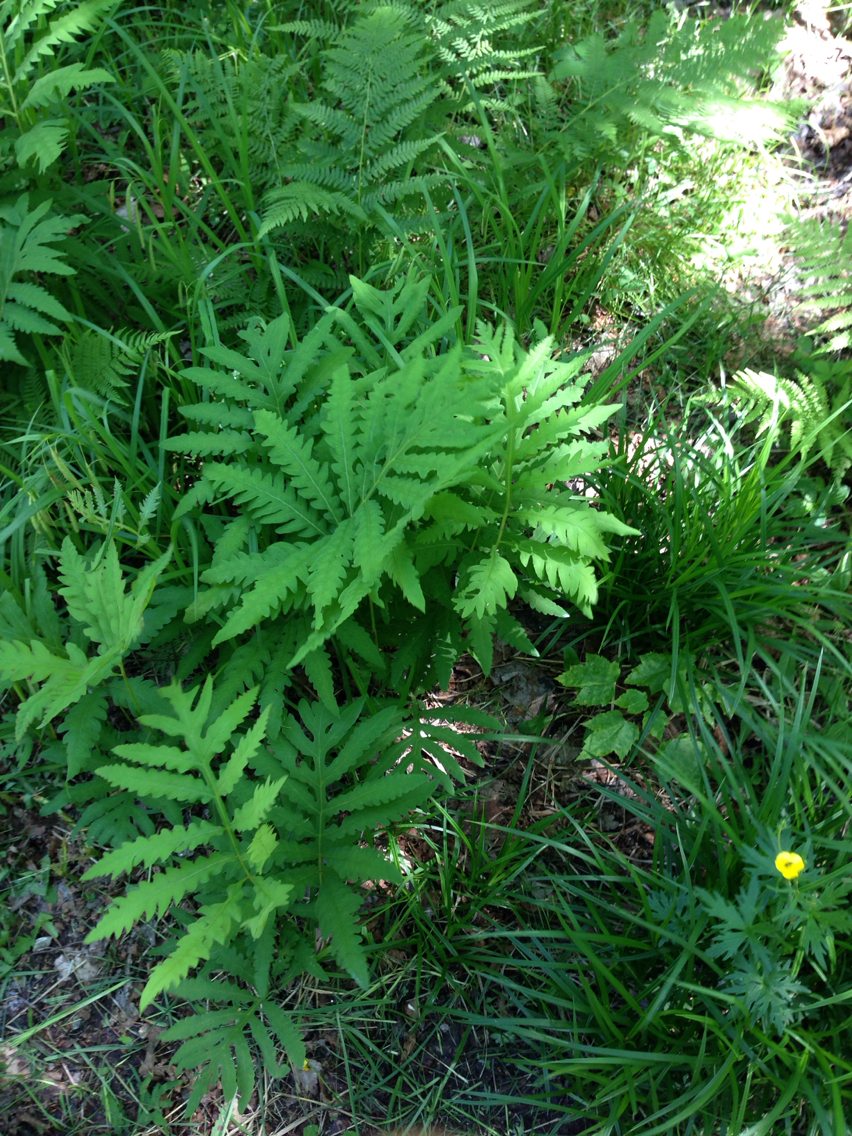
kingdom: Plantae
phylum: Tracheophyta
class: Polypodiopsida
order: Polypodiales
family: Onocleaceae
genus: Onoclea
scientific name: Onoclea sensibilis
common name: Sensitive fern
